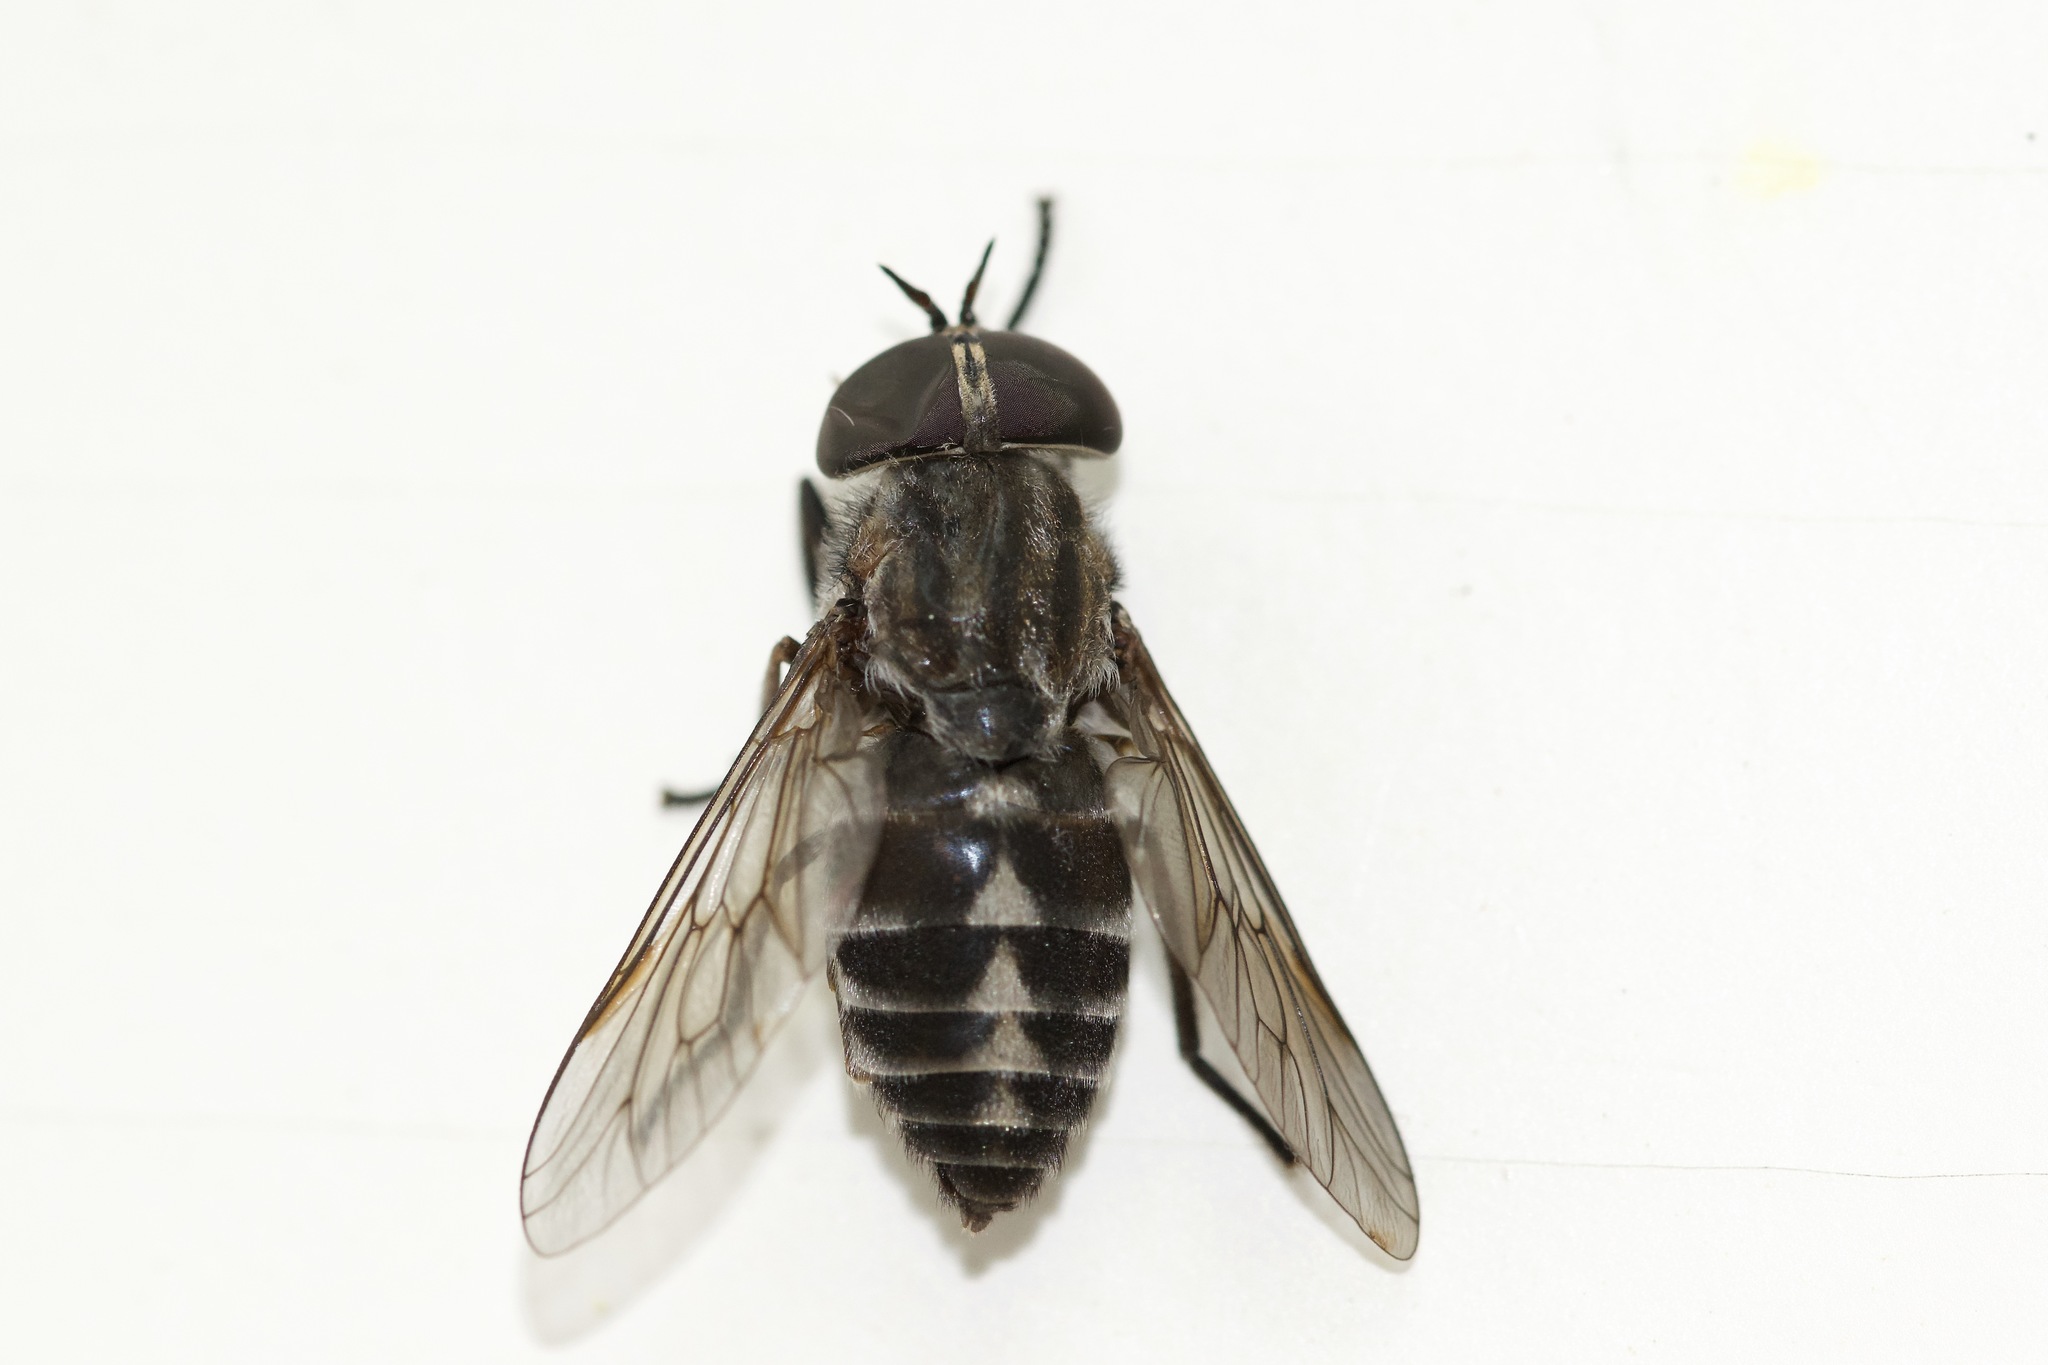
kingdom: Animalia
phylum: Arthropoda
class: Insecta
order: Diptera
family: Tabanidae
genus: Tabanus
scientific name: Tabanus nigripes
